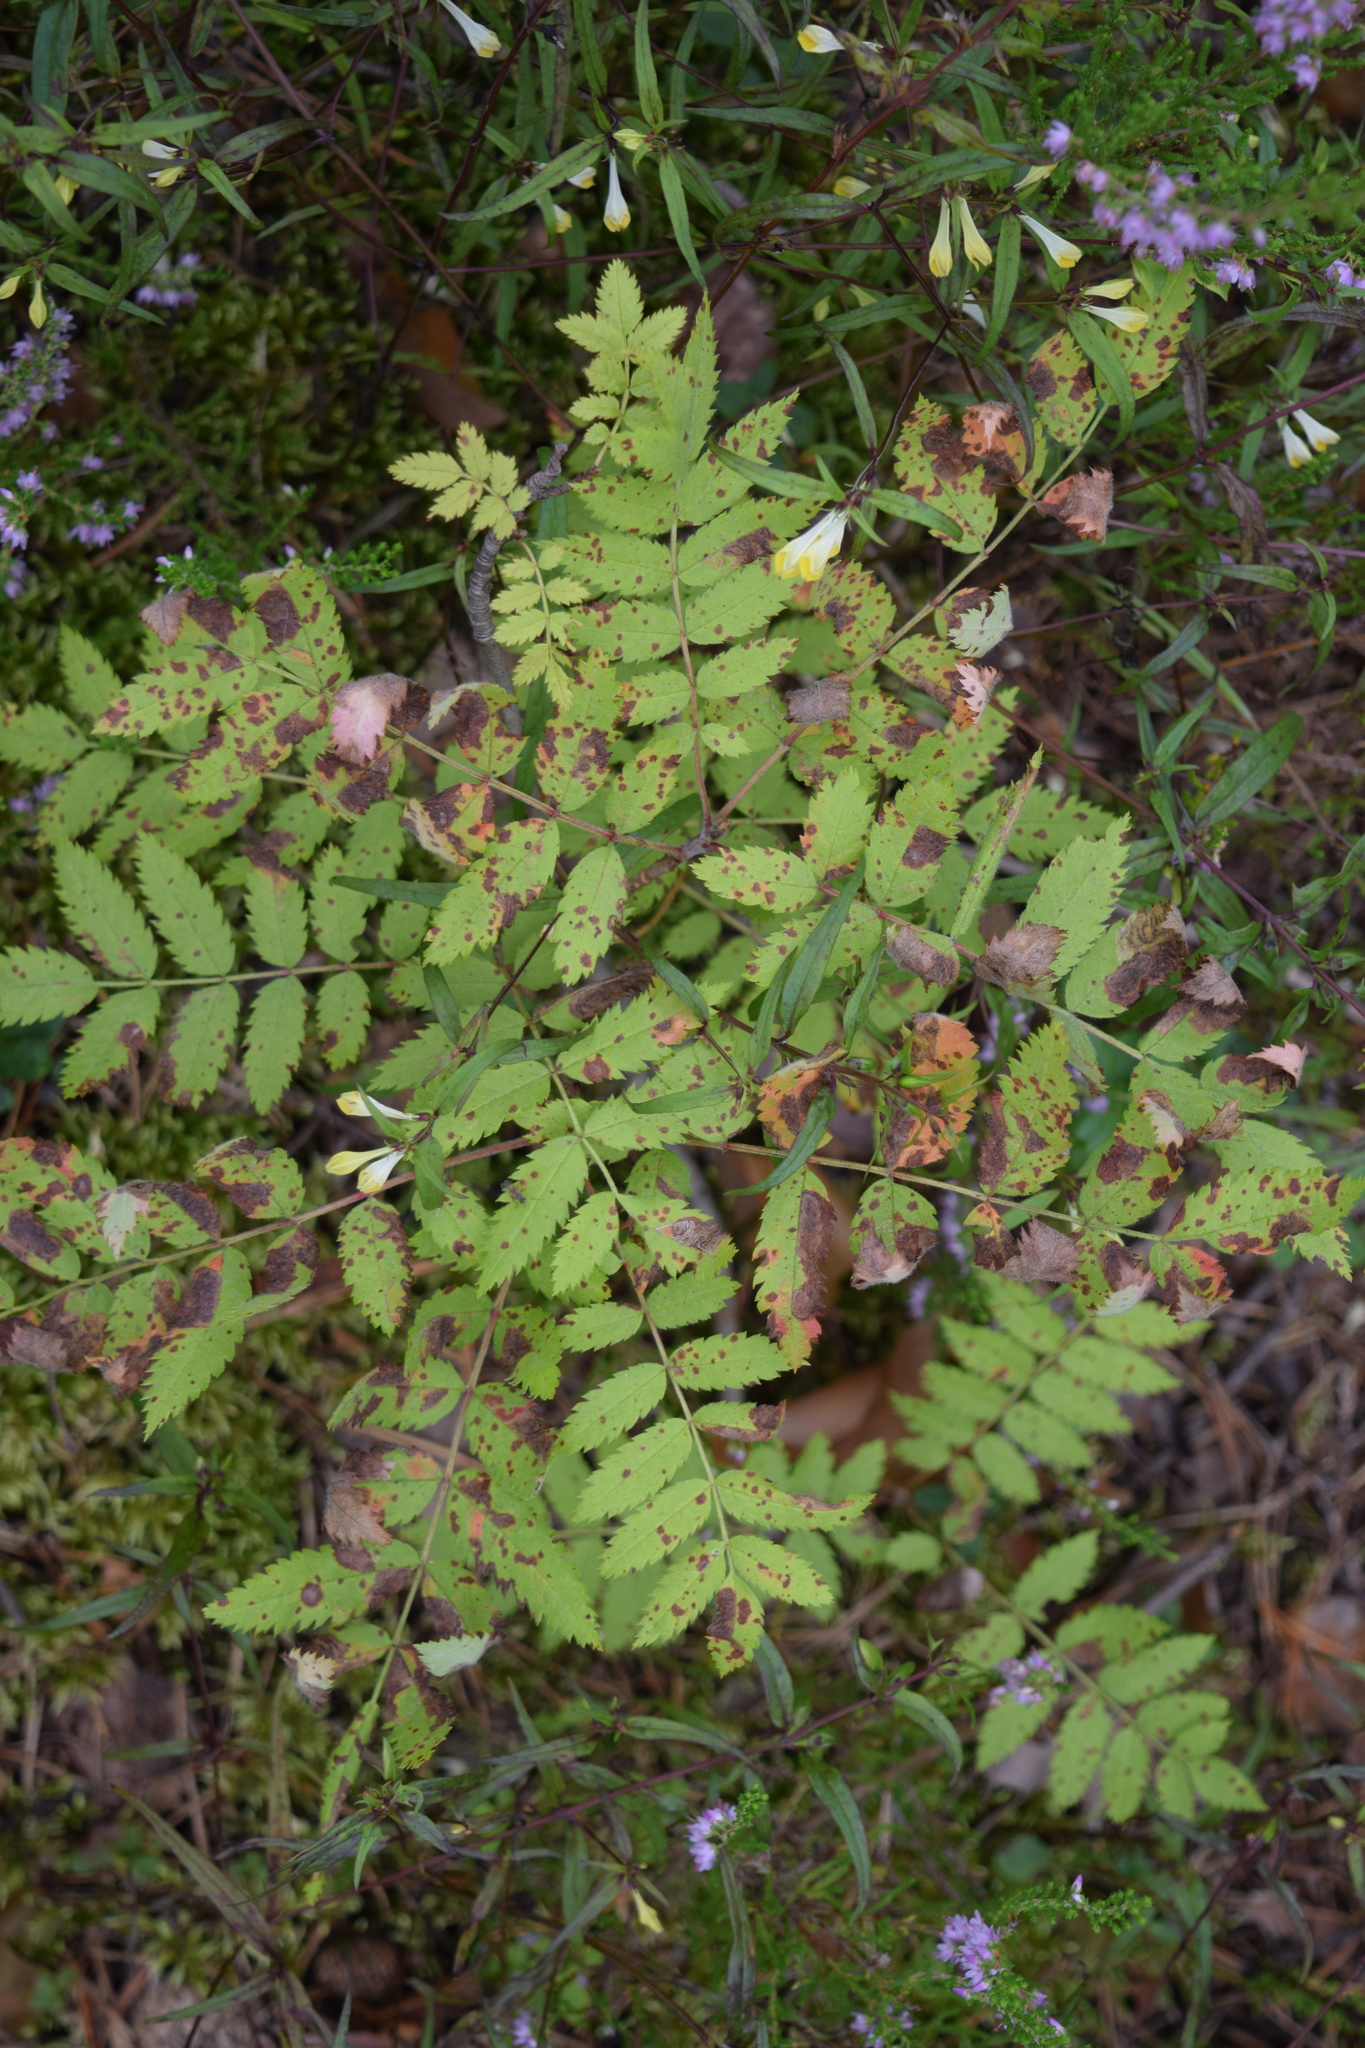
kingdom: Plantae
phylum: Tracheophyta
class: Magnoliopsida
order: Rosales
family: Rosaceae
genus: Sorbus
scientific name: Sorbus aucuparia
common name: Rowan
